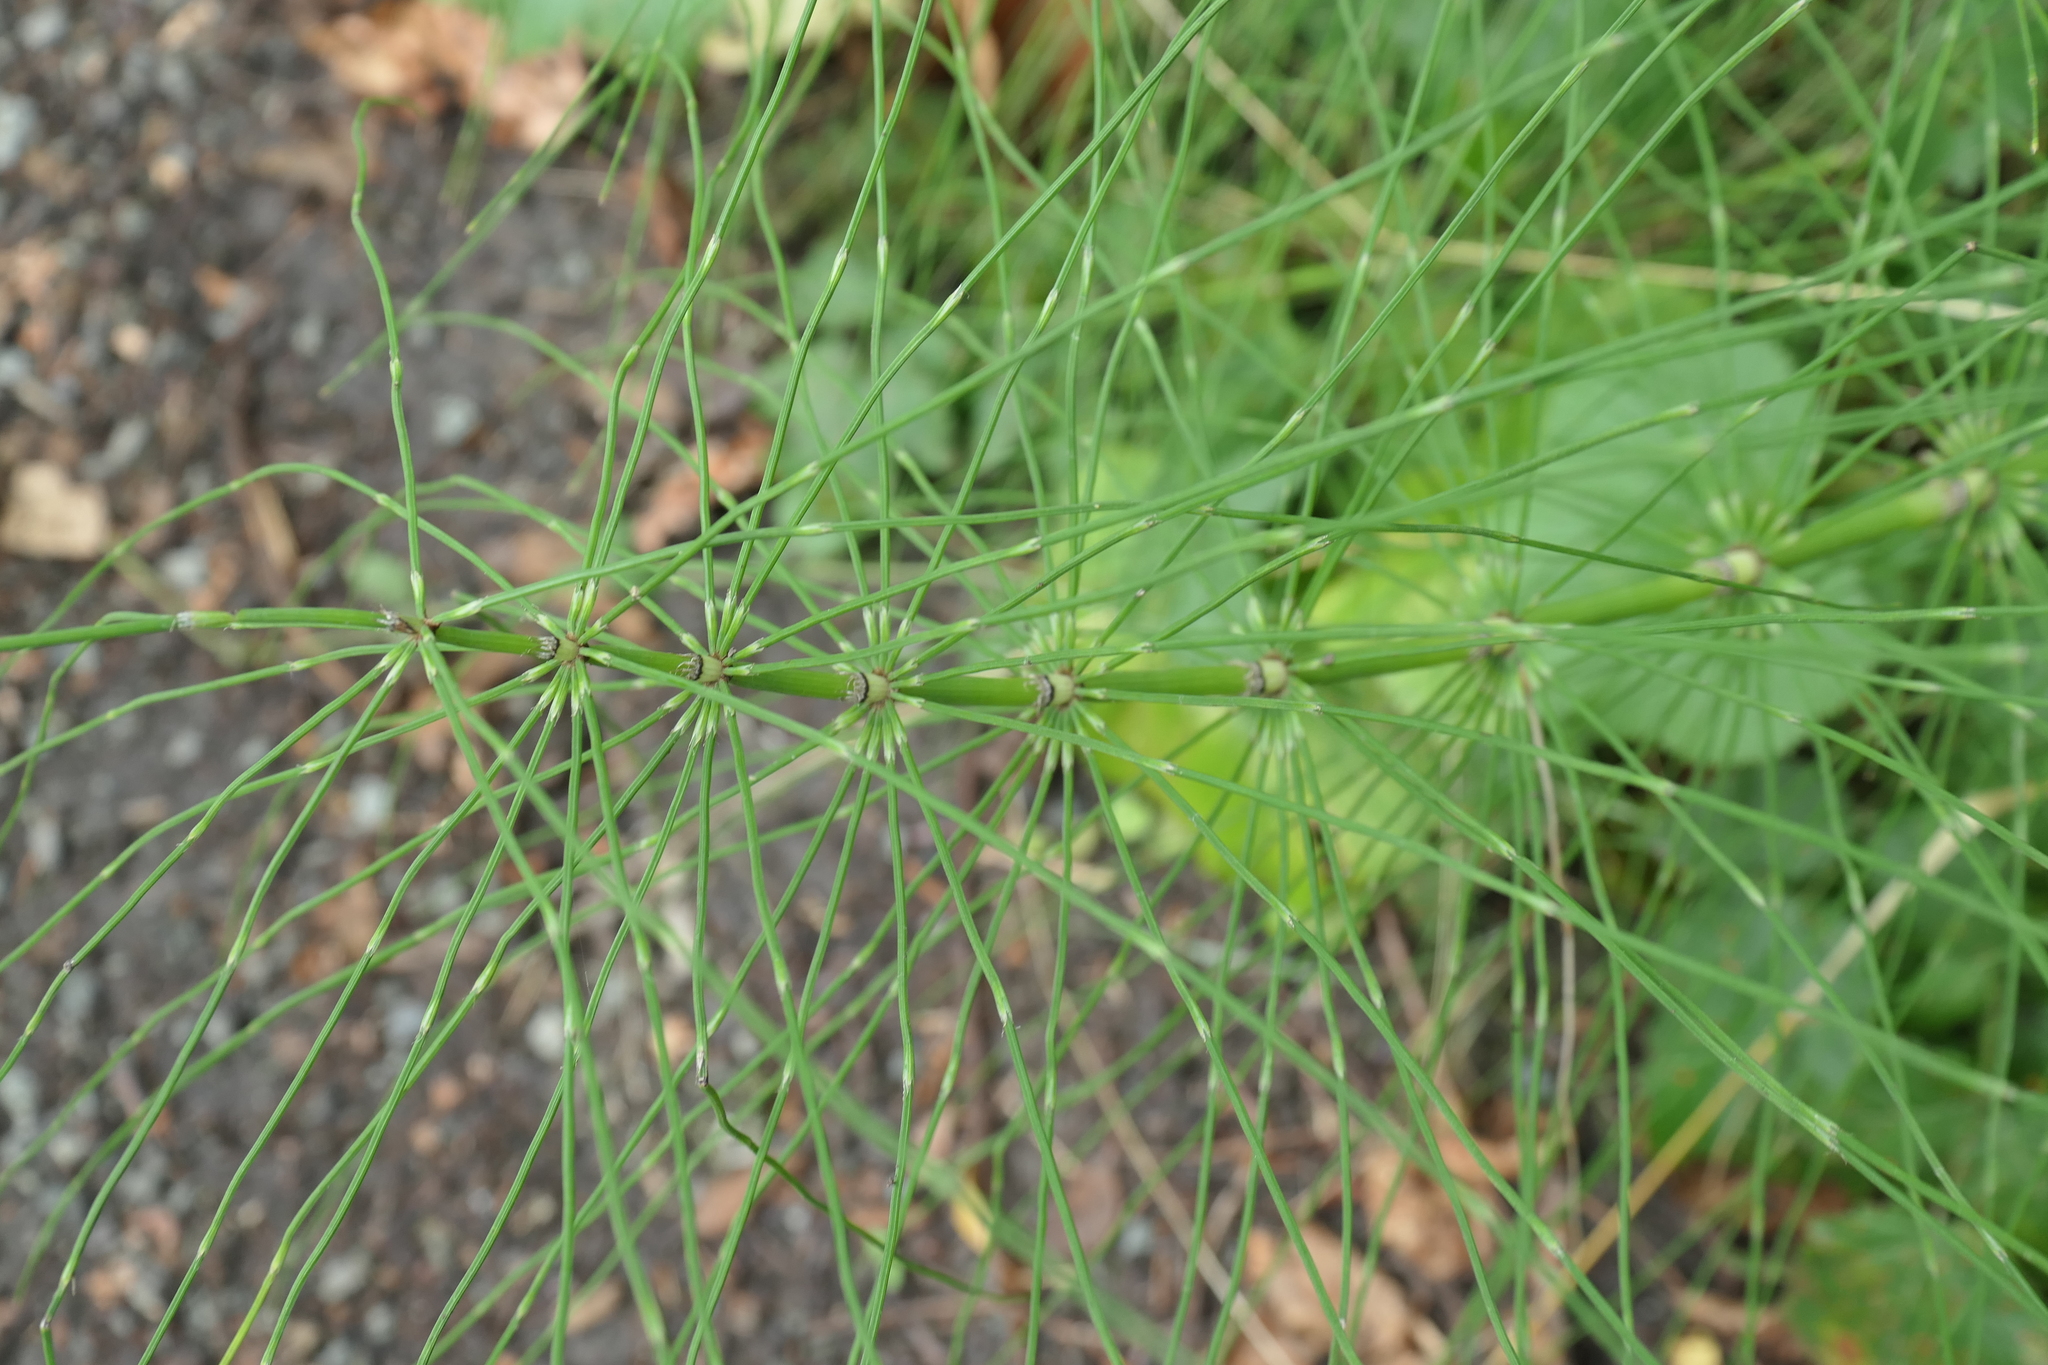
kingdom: Plantae
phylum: Tracheophyta
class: Polypodiopsida
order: Equisetales
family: Equisetaceae
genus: Equisetum
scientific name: Equisetum telmateia
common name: Great horsetail
